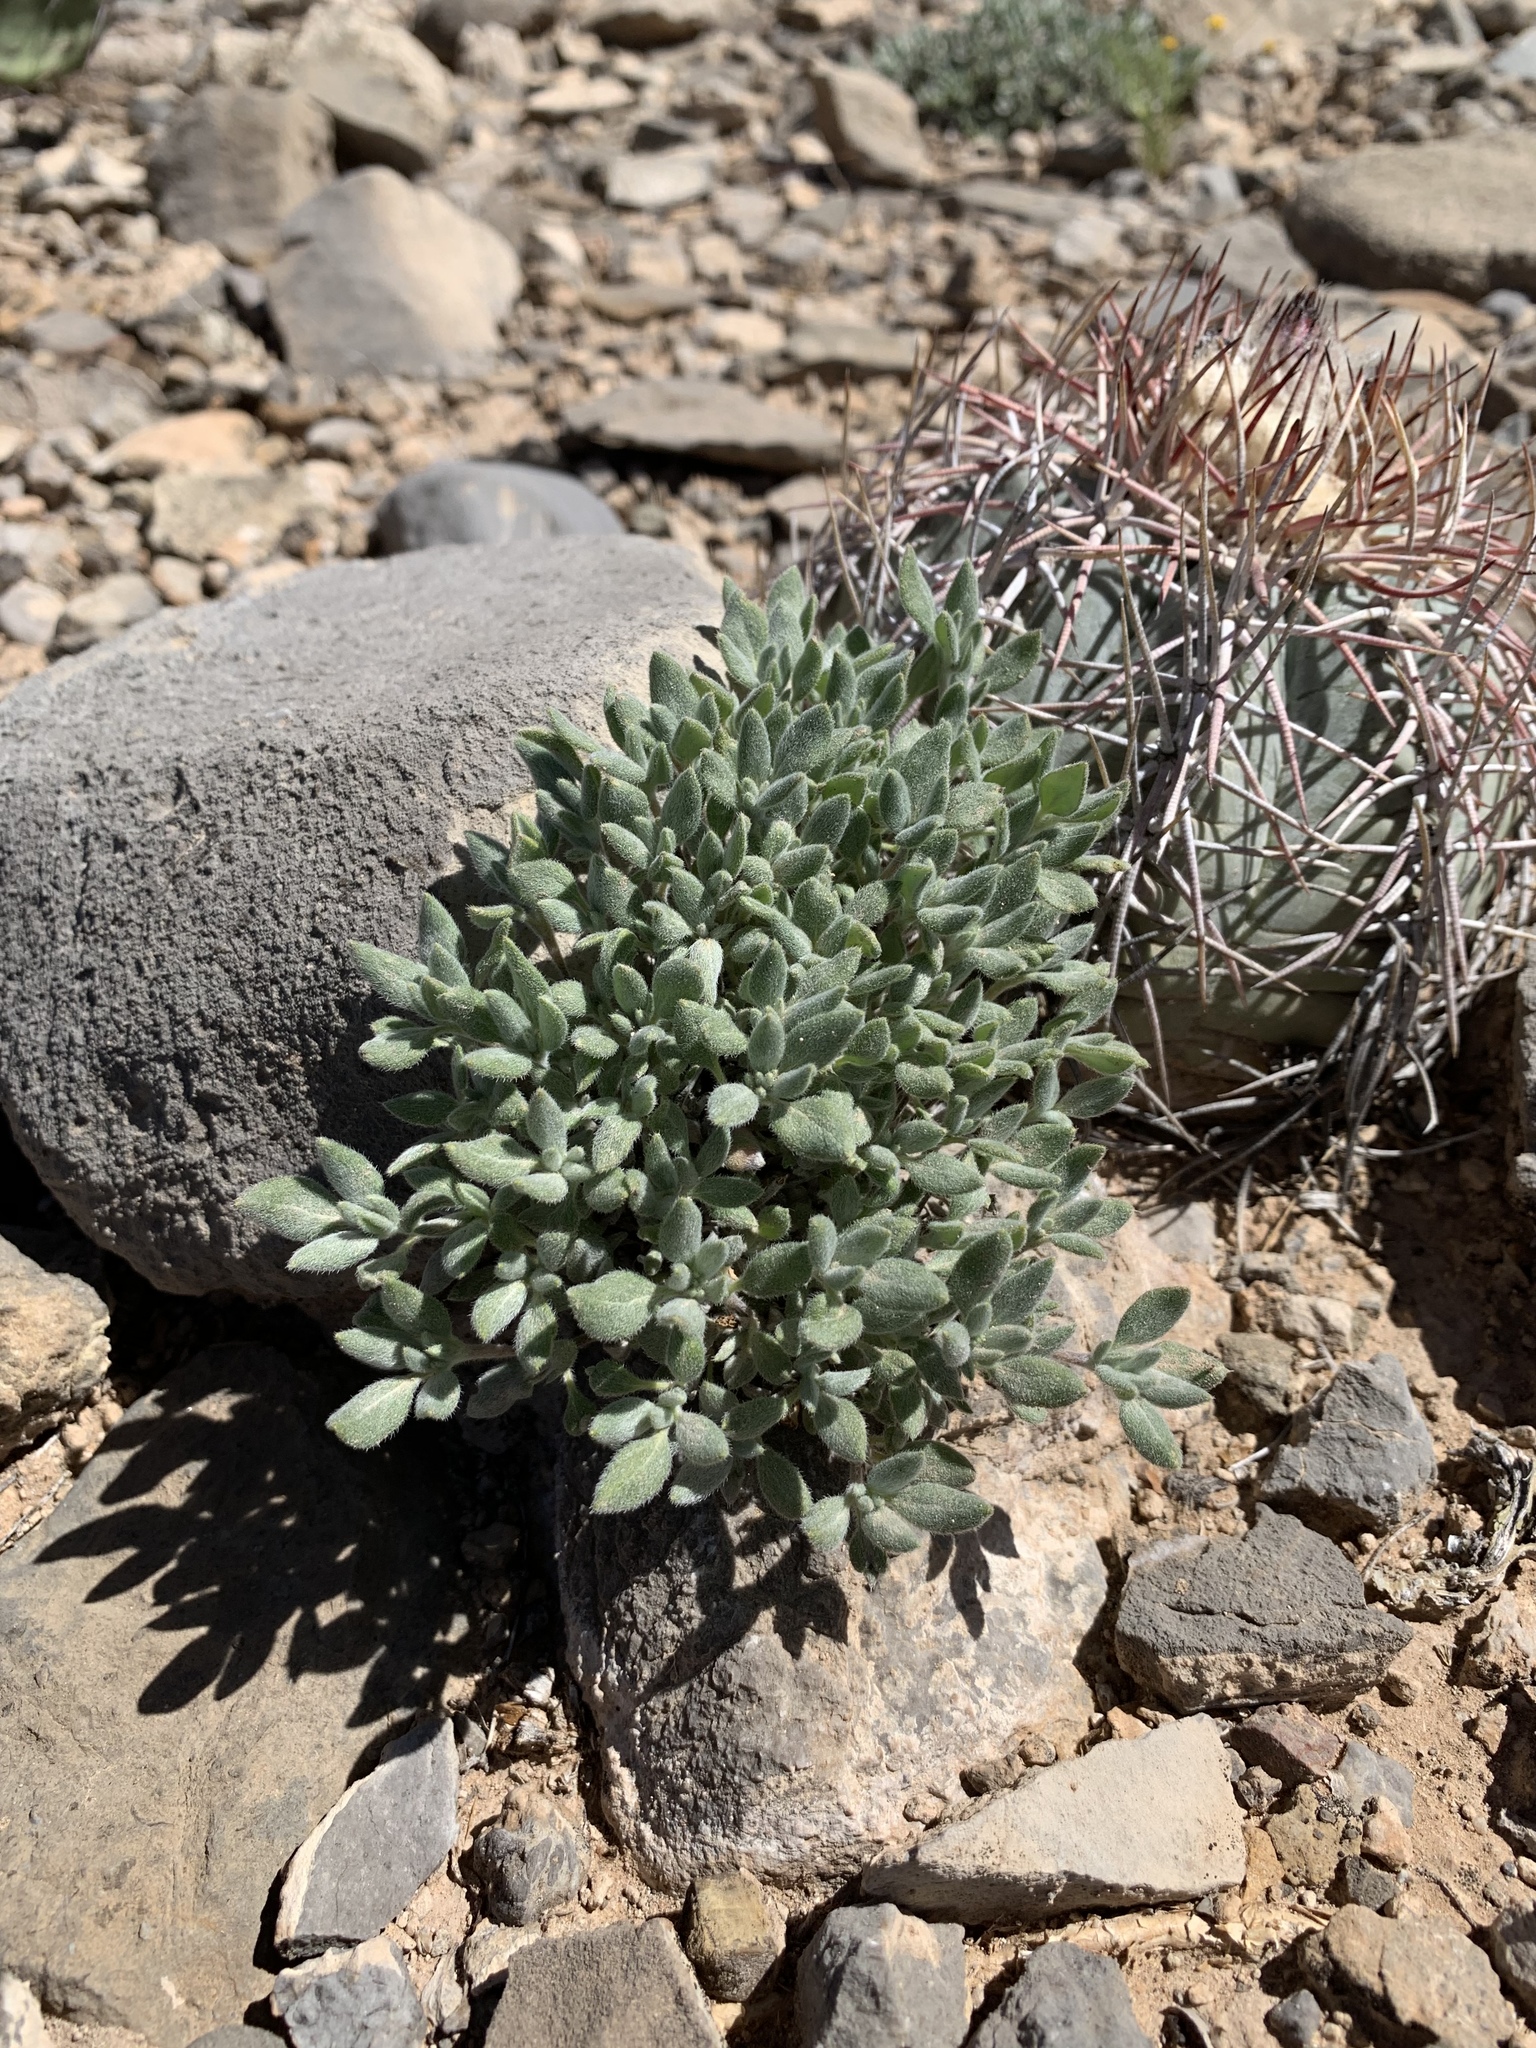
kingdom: Plantae
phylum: Tracheophyta
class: Magnoliopsida
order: Boraginales
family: Ehretiaceae
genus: Tiquilia
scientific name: Tiquilia canescens
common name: Hairy tiquilia
